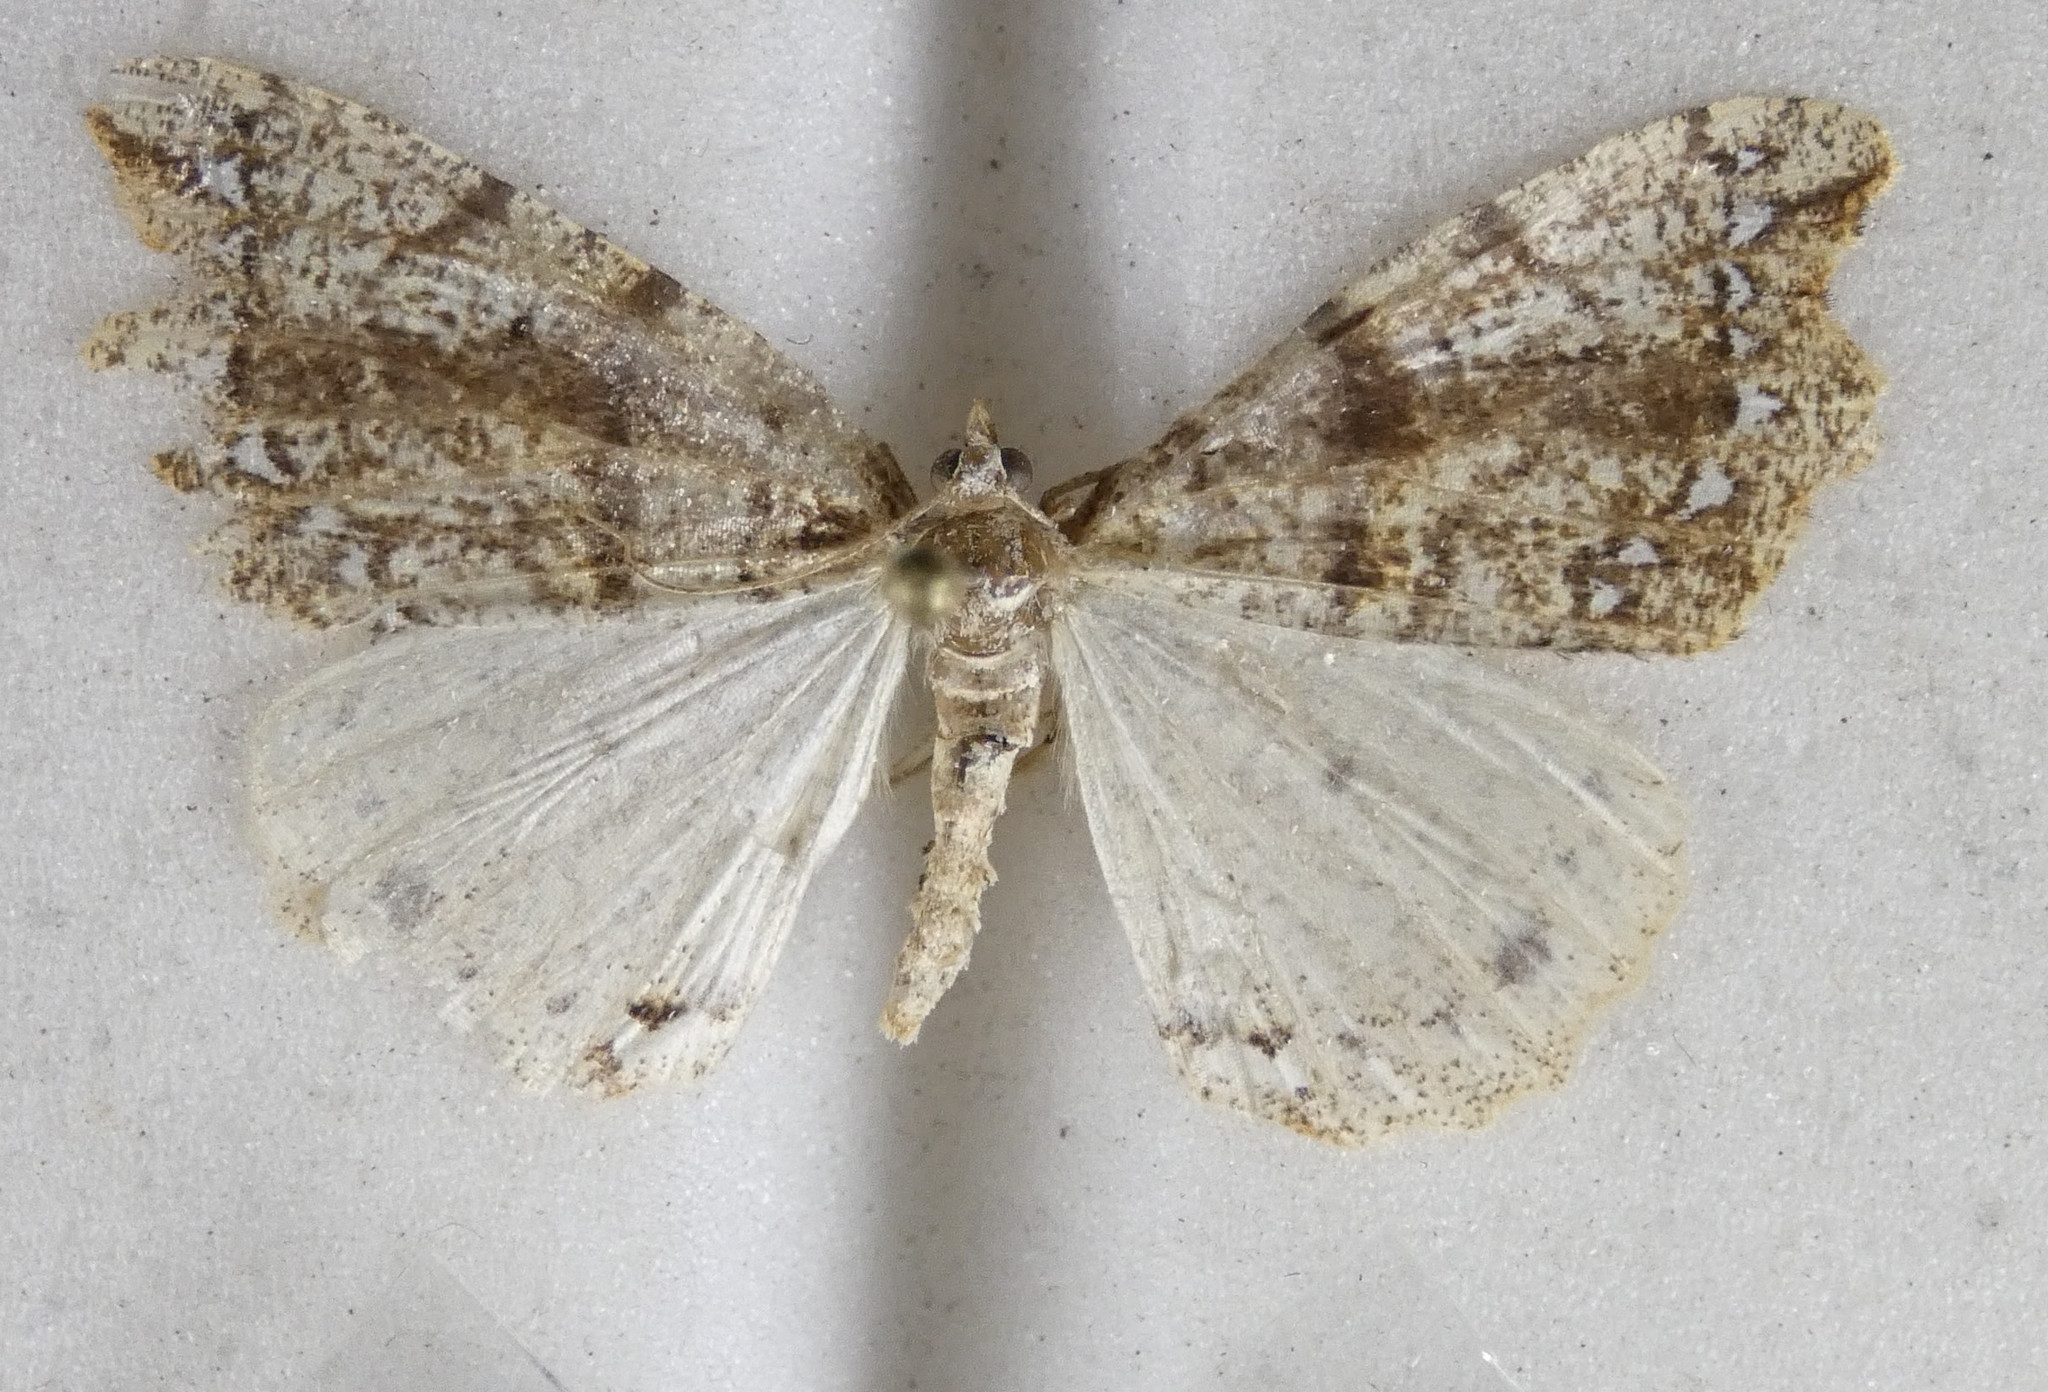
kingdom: Animalia
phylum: Arthropoda
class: Insecta
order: Lepidoptera
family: Geometridae
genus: Chalastra
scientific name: Chalastra pellurgata
